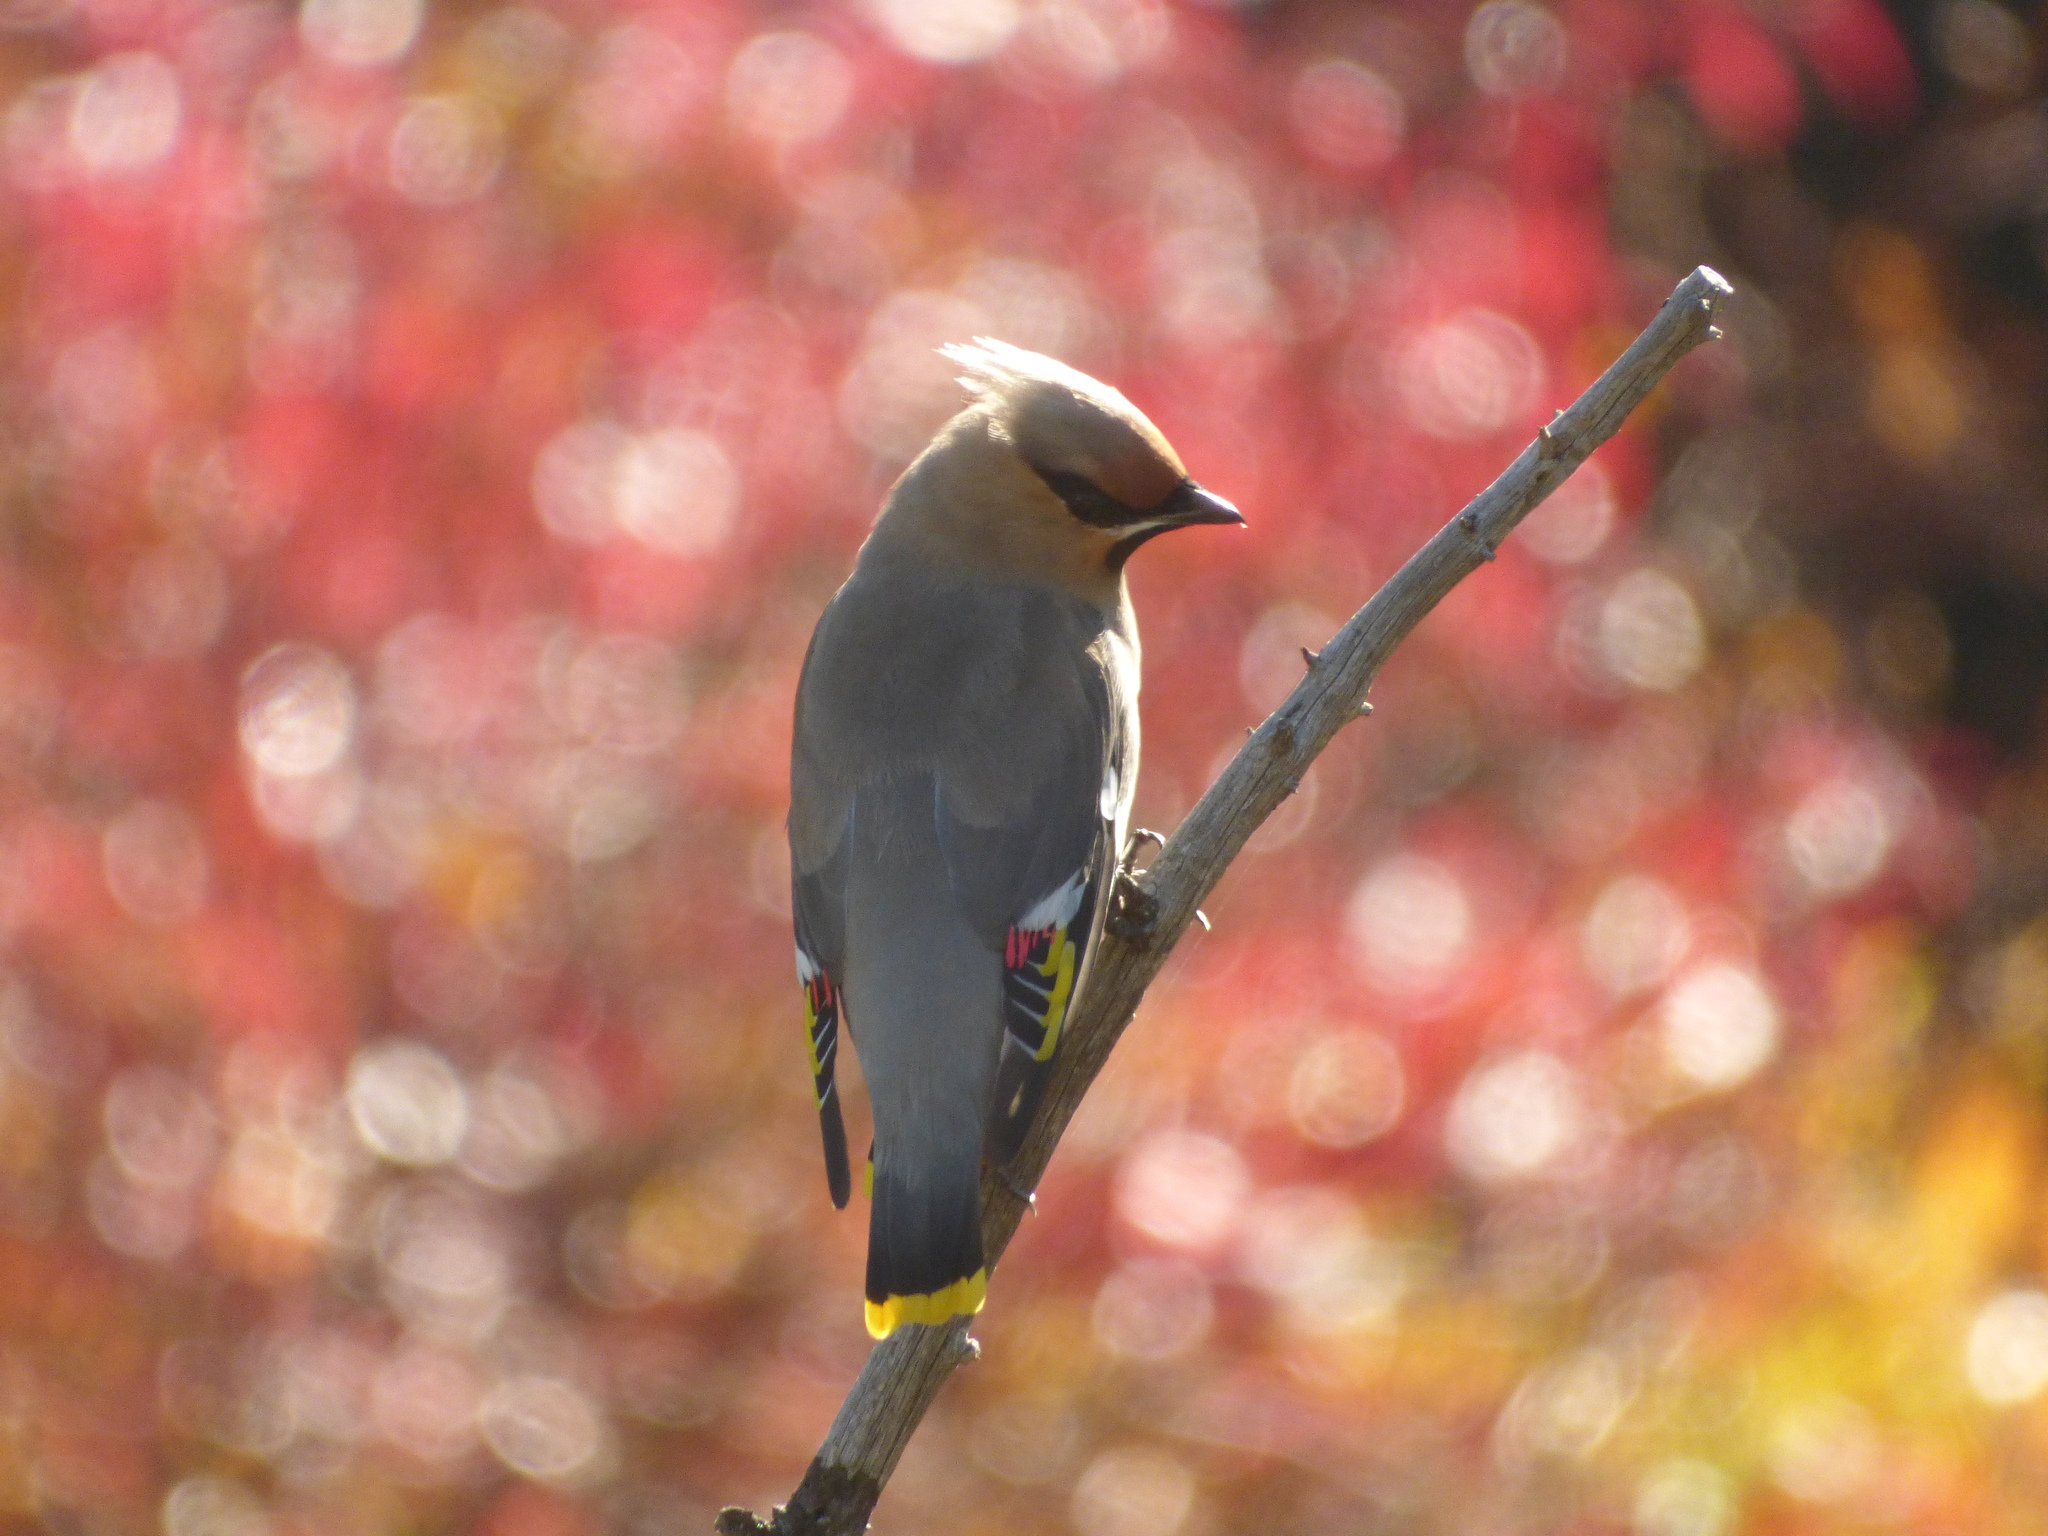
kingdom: Animalia
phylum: Chordata
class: Aves
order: Passeriformes
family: Bombycillidae
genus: Bombycilla
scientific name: Bombycilla garrulus
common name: Bohemian waxwing
